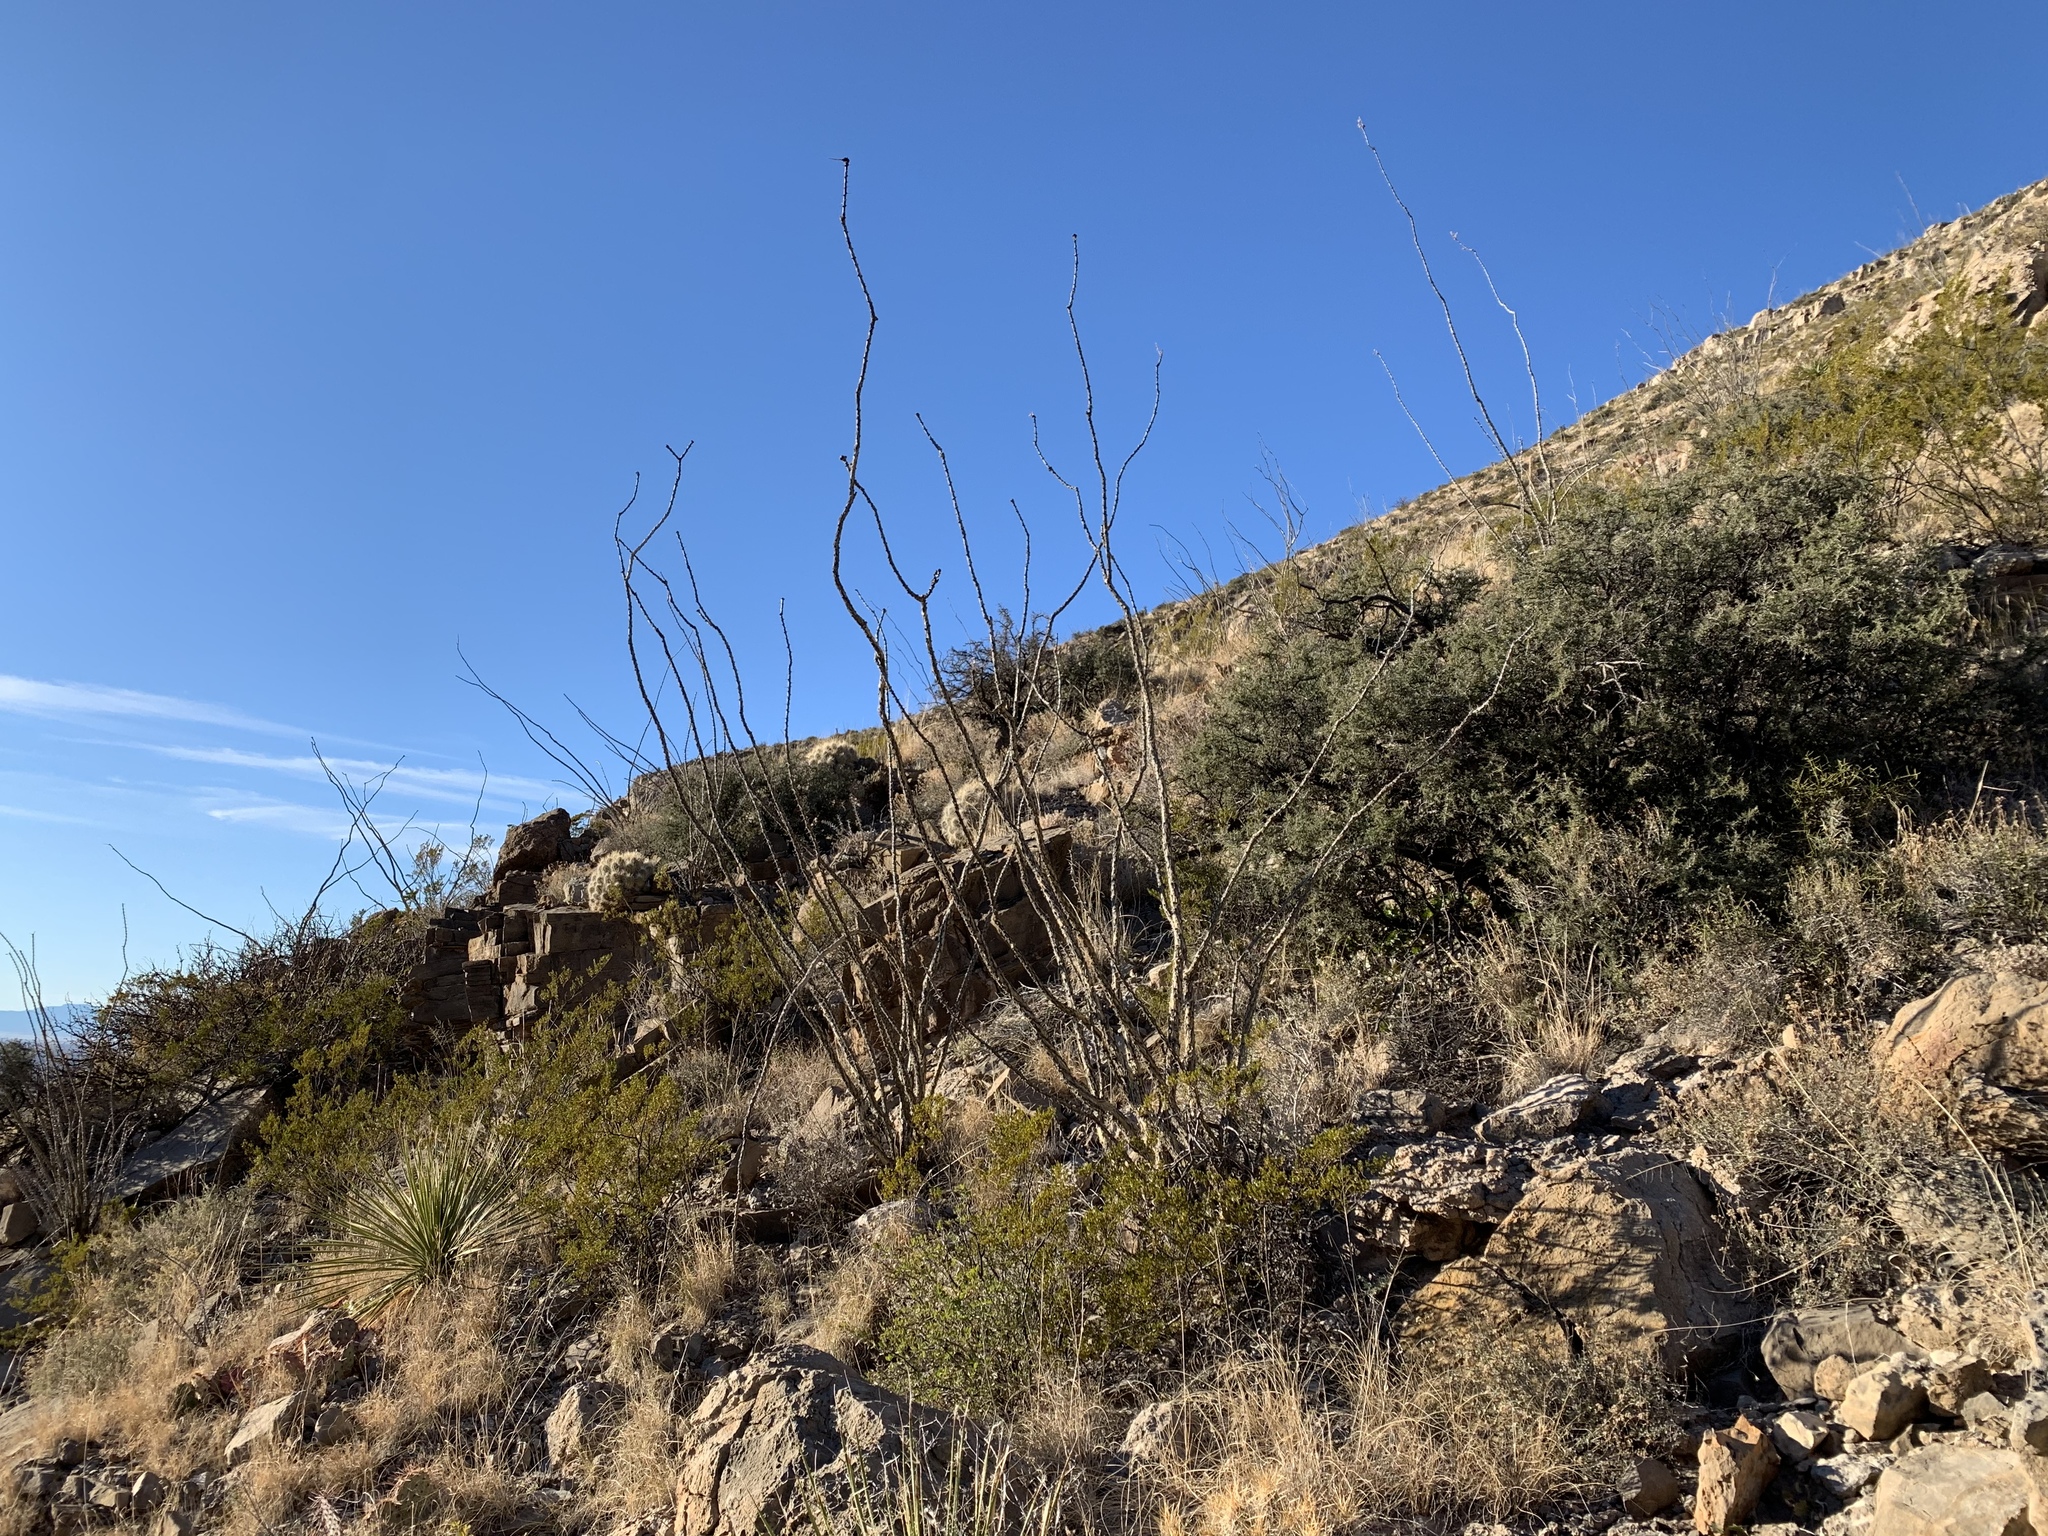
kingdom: Plantae
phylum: Tracheophyta
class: Magnoliopsida
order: Ericales
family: Fouquieriaceae
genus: Fouquieria
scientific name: Fouquieria splendens
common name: Vine-cactus
